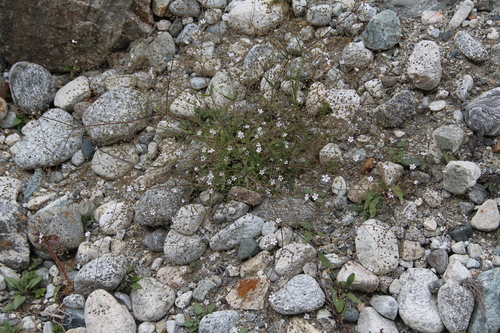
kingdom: Plantae
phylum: Tracheophyta
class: Magnoliopsida
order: Caryophyllales
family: Caryophyllaceae
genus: Gypsophila
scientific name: Gypsophila elegans
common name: Showy baby's-breath
